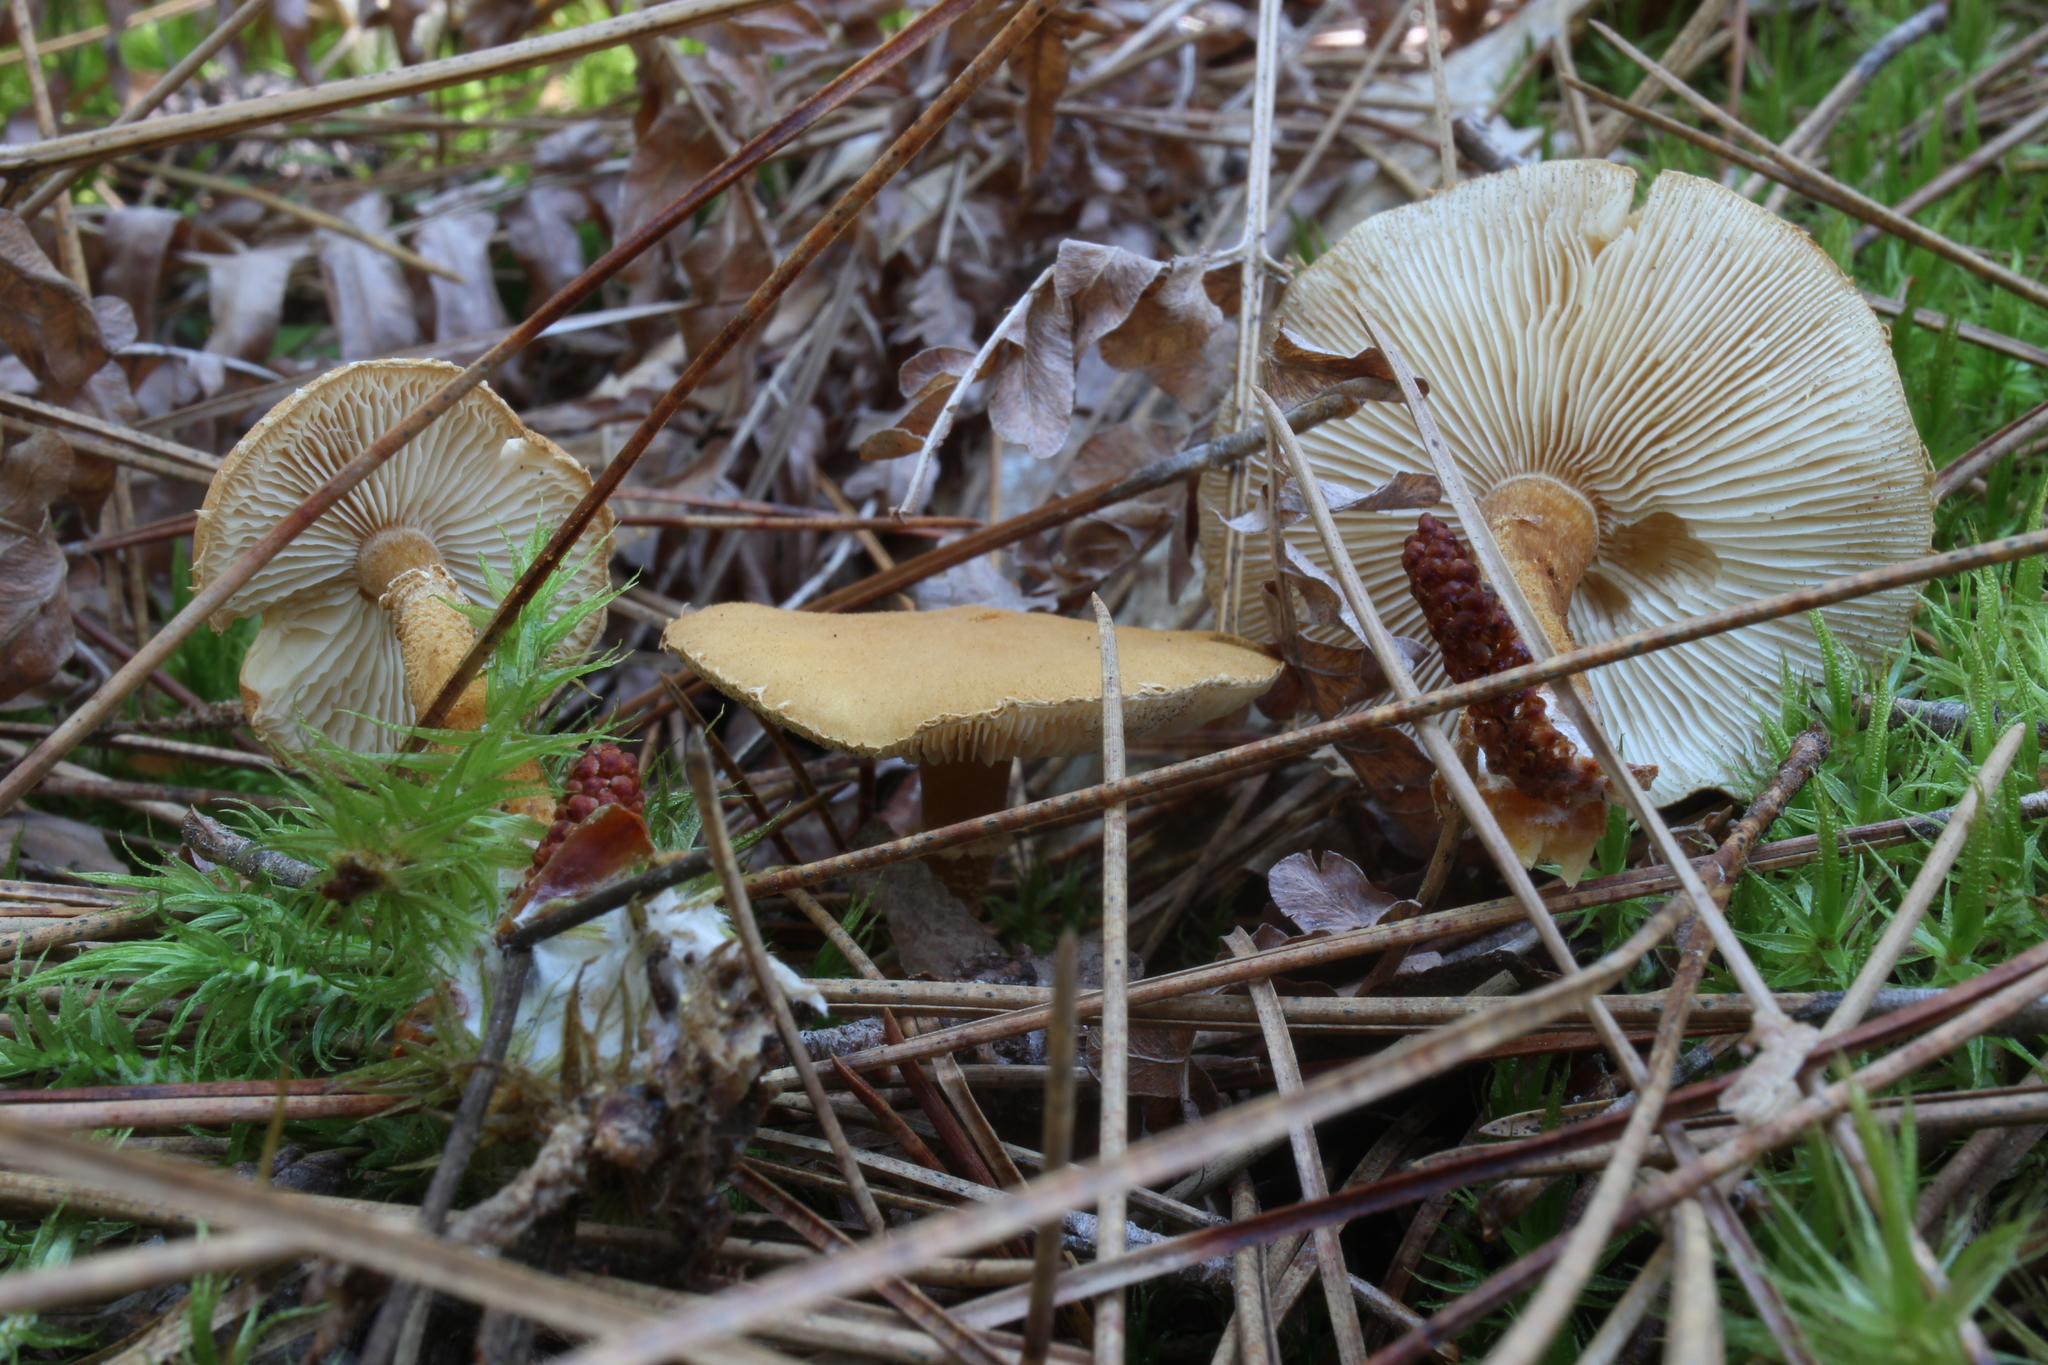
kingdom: Fungi
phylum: Basidiomycota
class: Agaricomycetes
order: Agaricales
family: Tricholomataceae
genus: Cystoderma
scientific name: Cystoderma amianthinum
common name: Earthy powdercap
